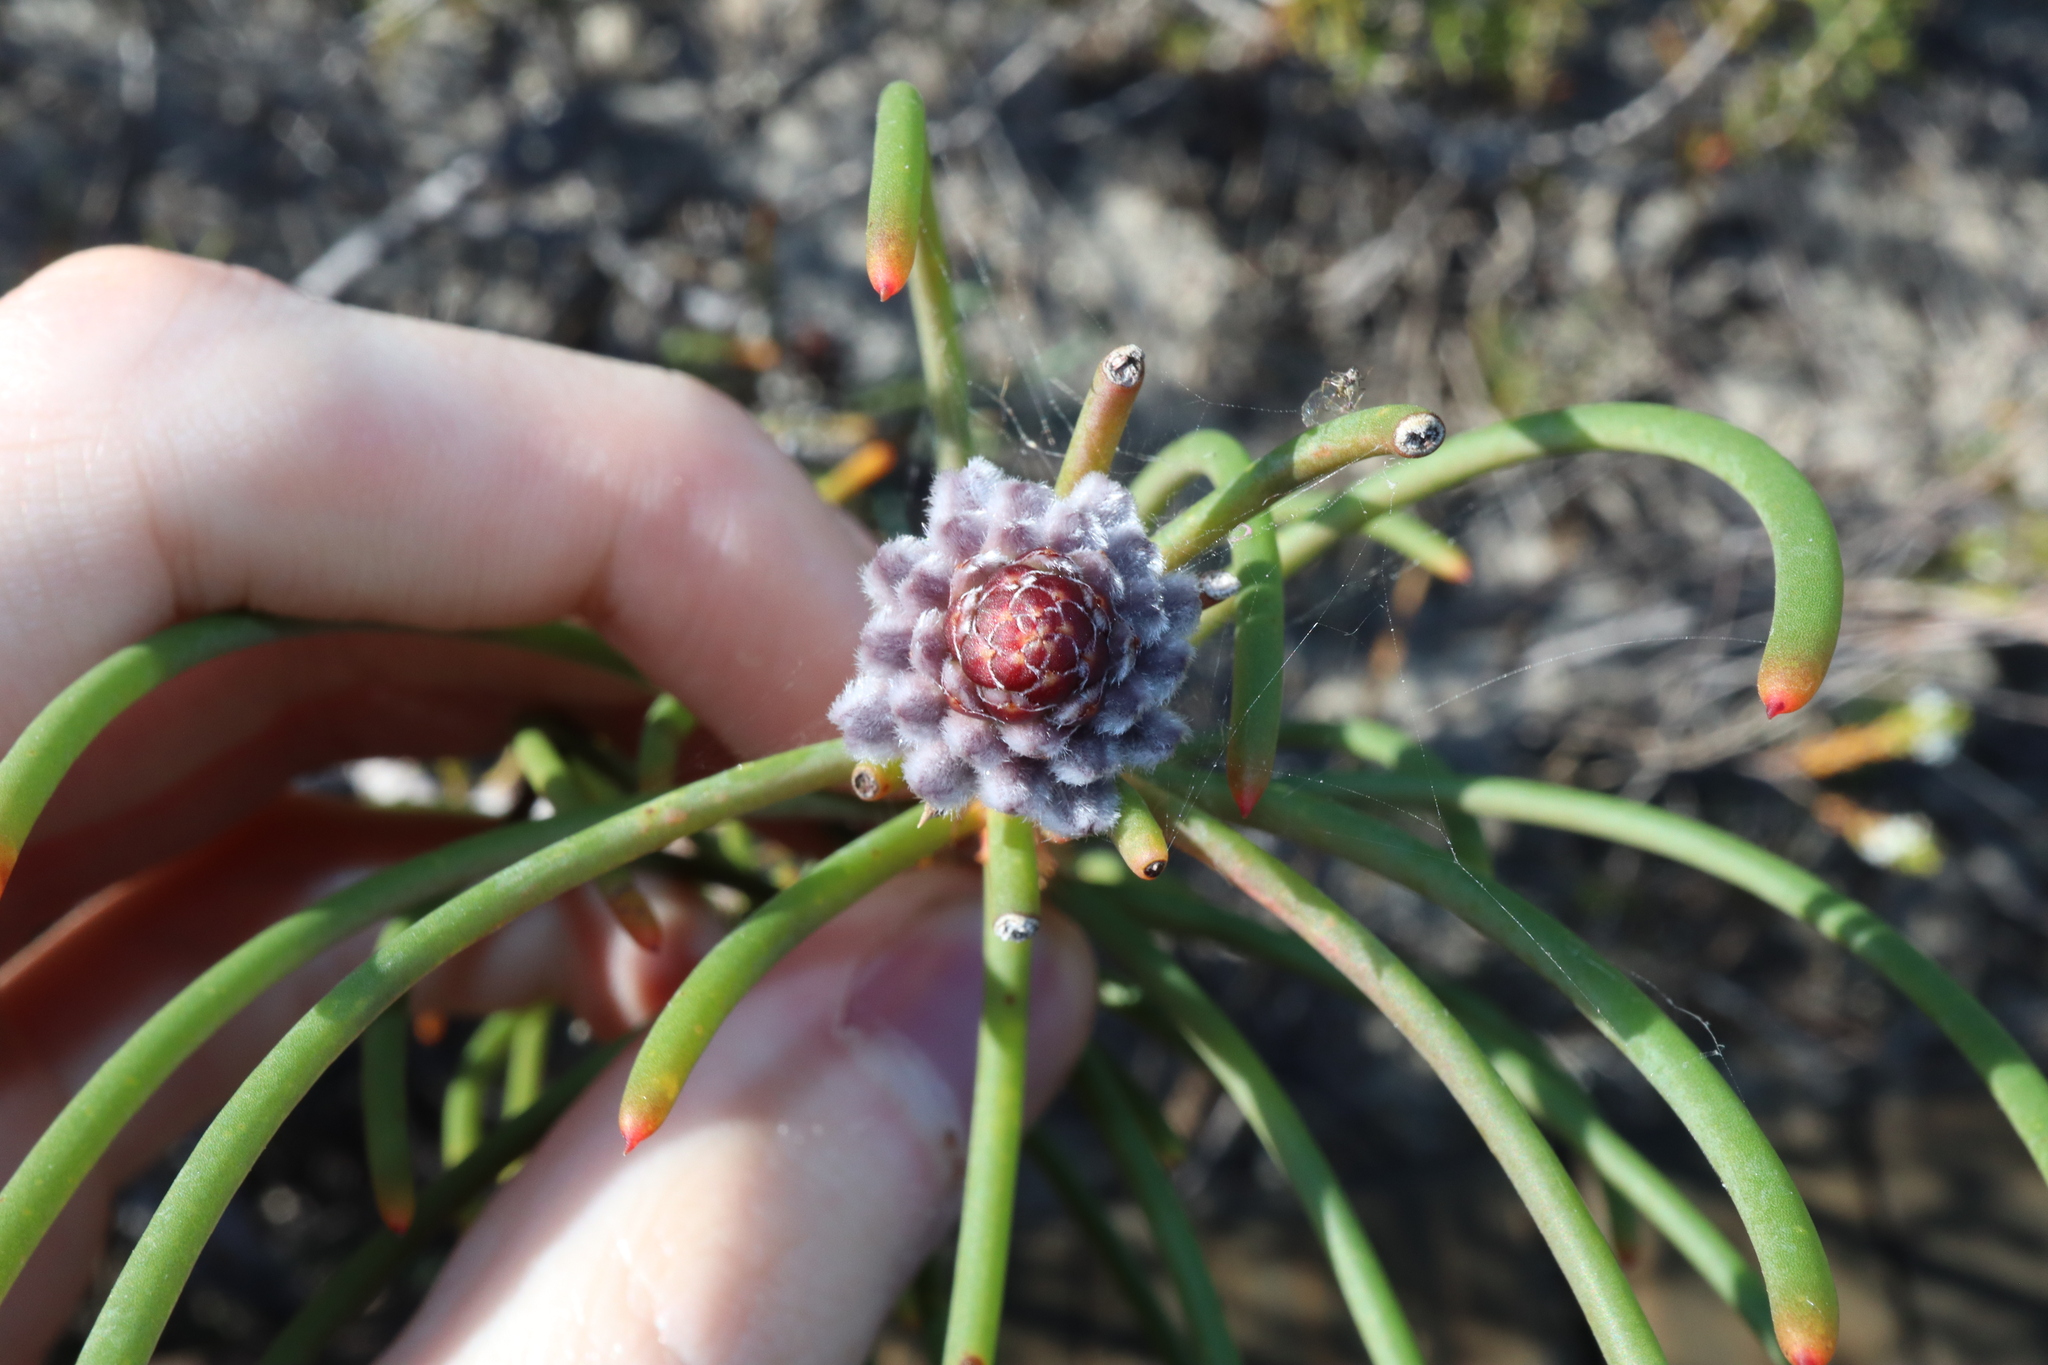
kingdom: Plantae
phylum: Tracheophyta
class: Magnoliopsida
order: Proteales
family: Proteaceae
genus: Petrophile
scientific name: Petrophile teretifolia
